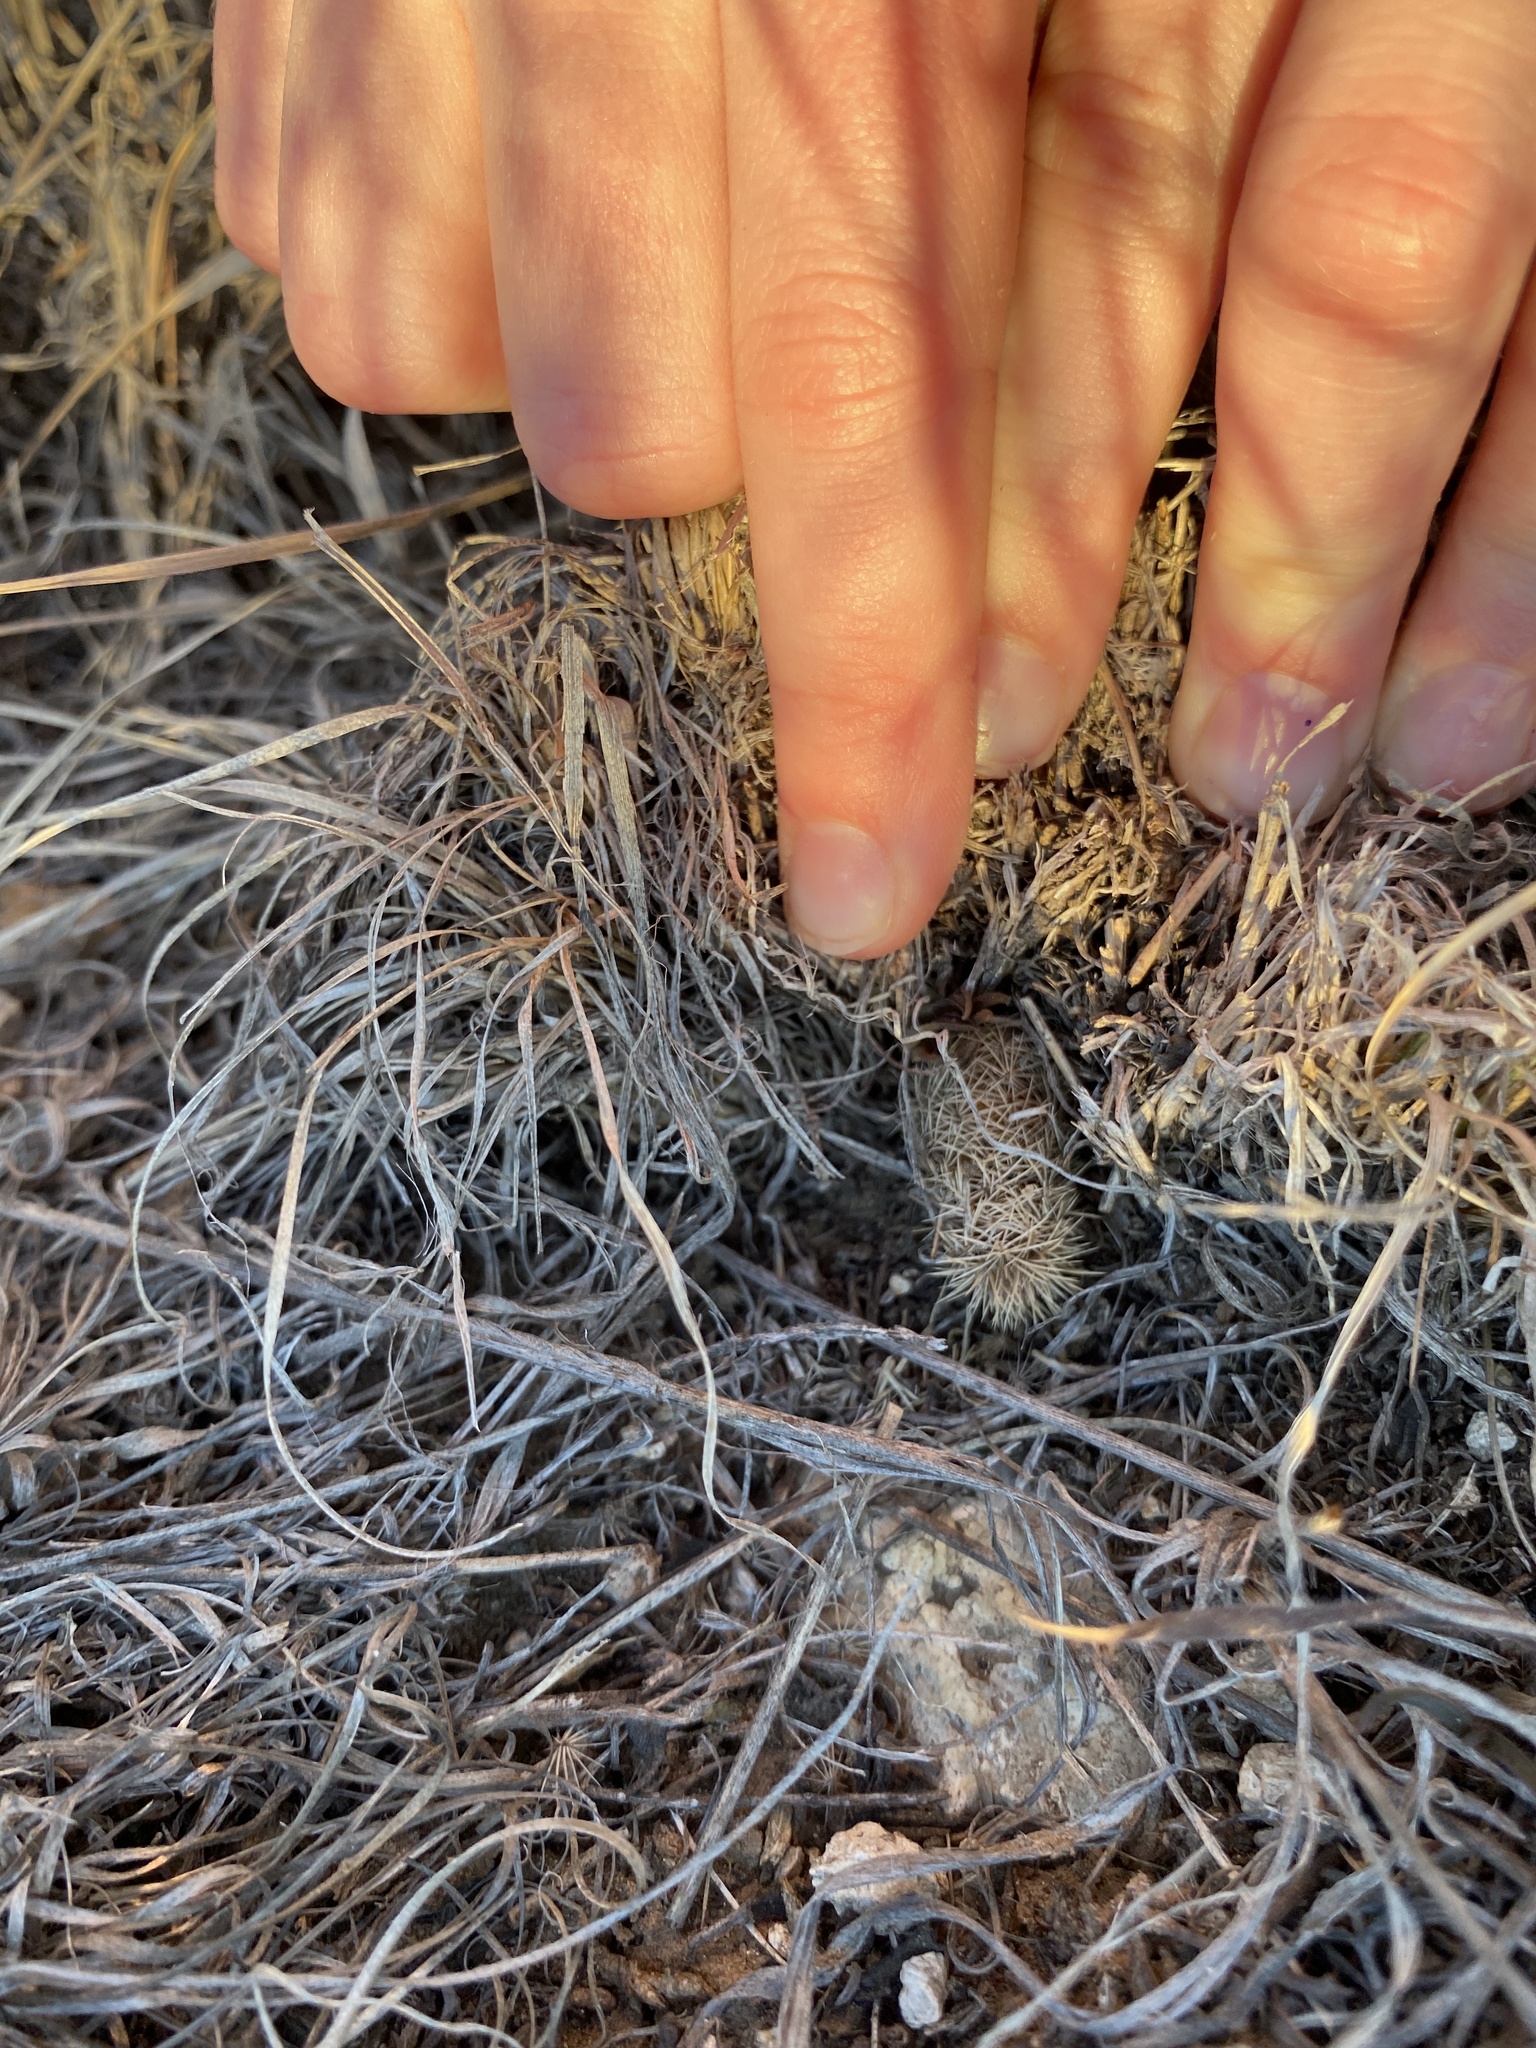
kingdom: Plantae
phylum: Tracheophyta
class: Magnoliopsida
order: Caryophyllales
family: Cactaceae
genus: Echinocereus
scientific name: Echinocereus reichenbachii
